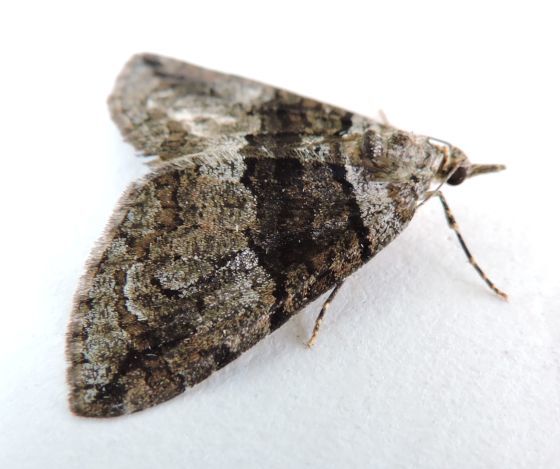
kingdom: Animalia
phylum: Arthropoda
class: Insecta
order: Lepidoptera
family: Geometridae
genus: Hydriomena
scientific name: Hydriomena barnesata
